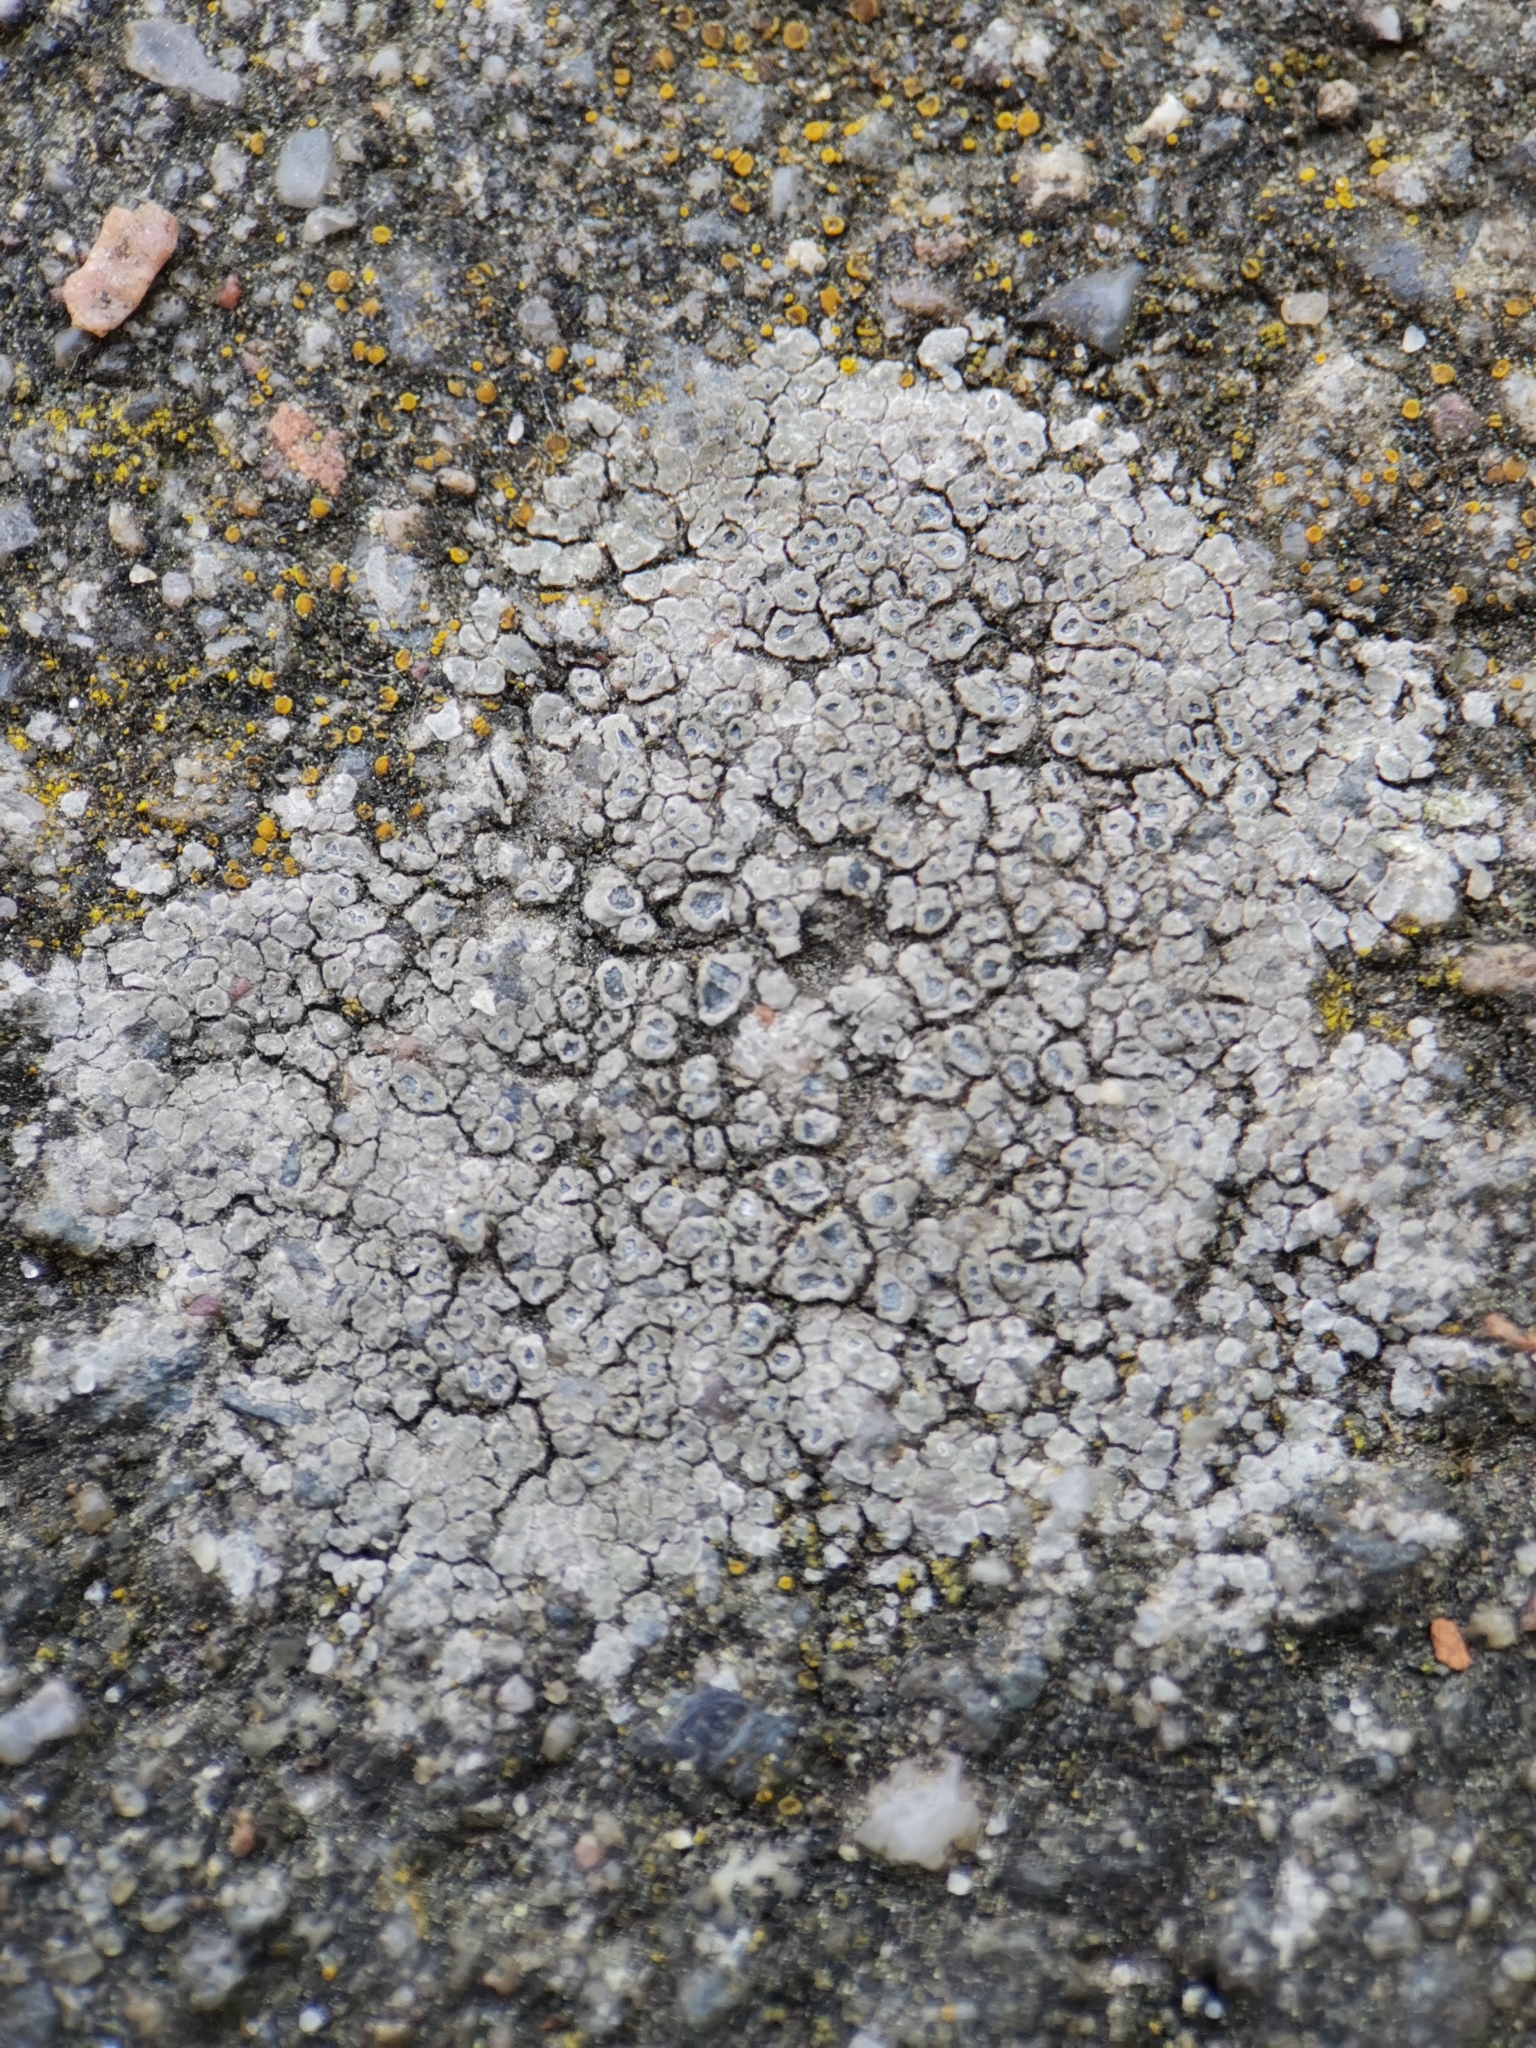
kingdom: Fungi
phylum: Ascomycota
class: Lecanoromycetes
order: Pertusariales
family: Megasporaceae
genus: Circinaria
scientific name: Circinaria contorta
